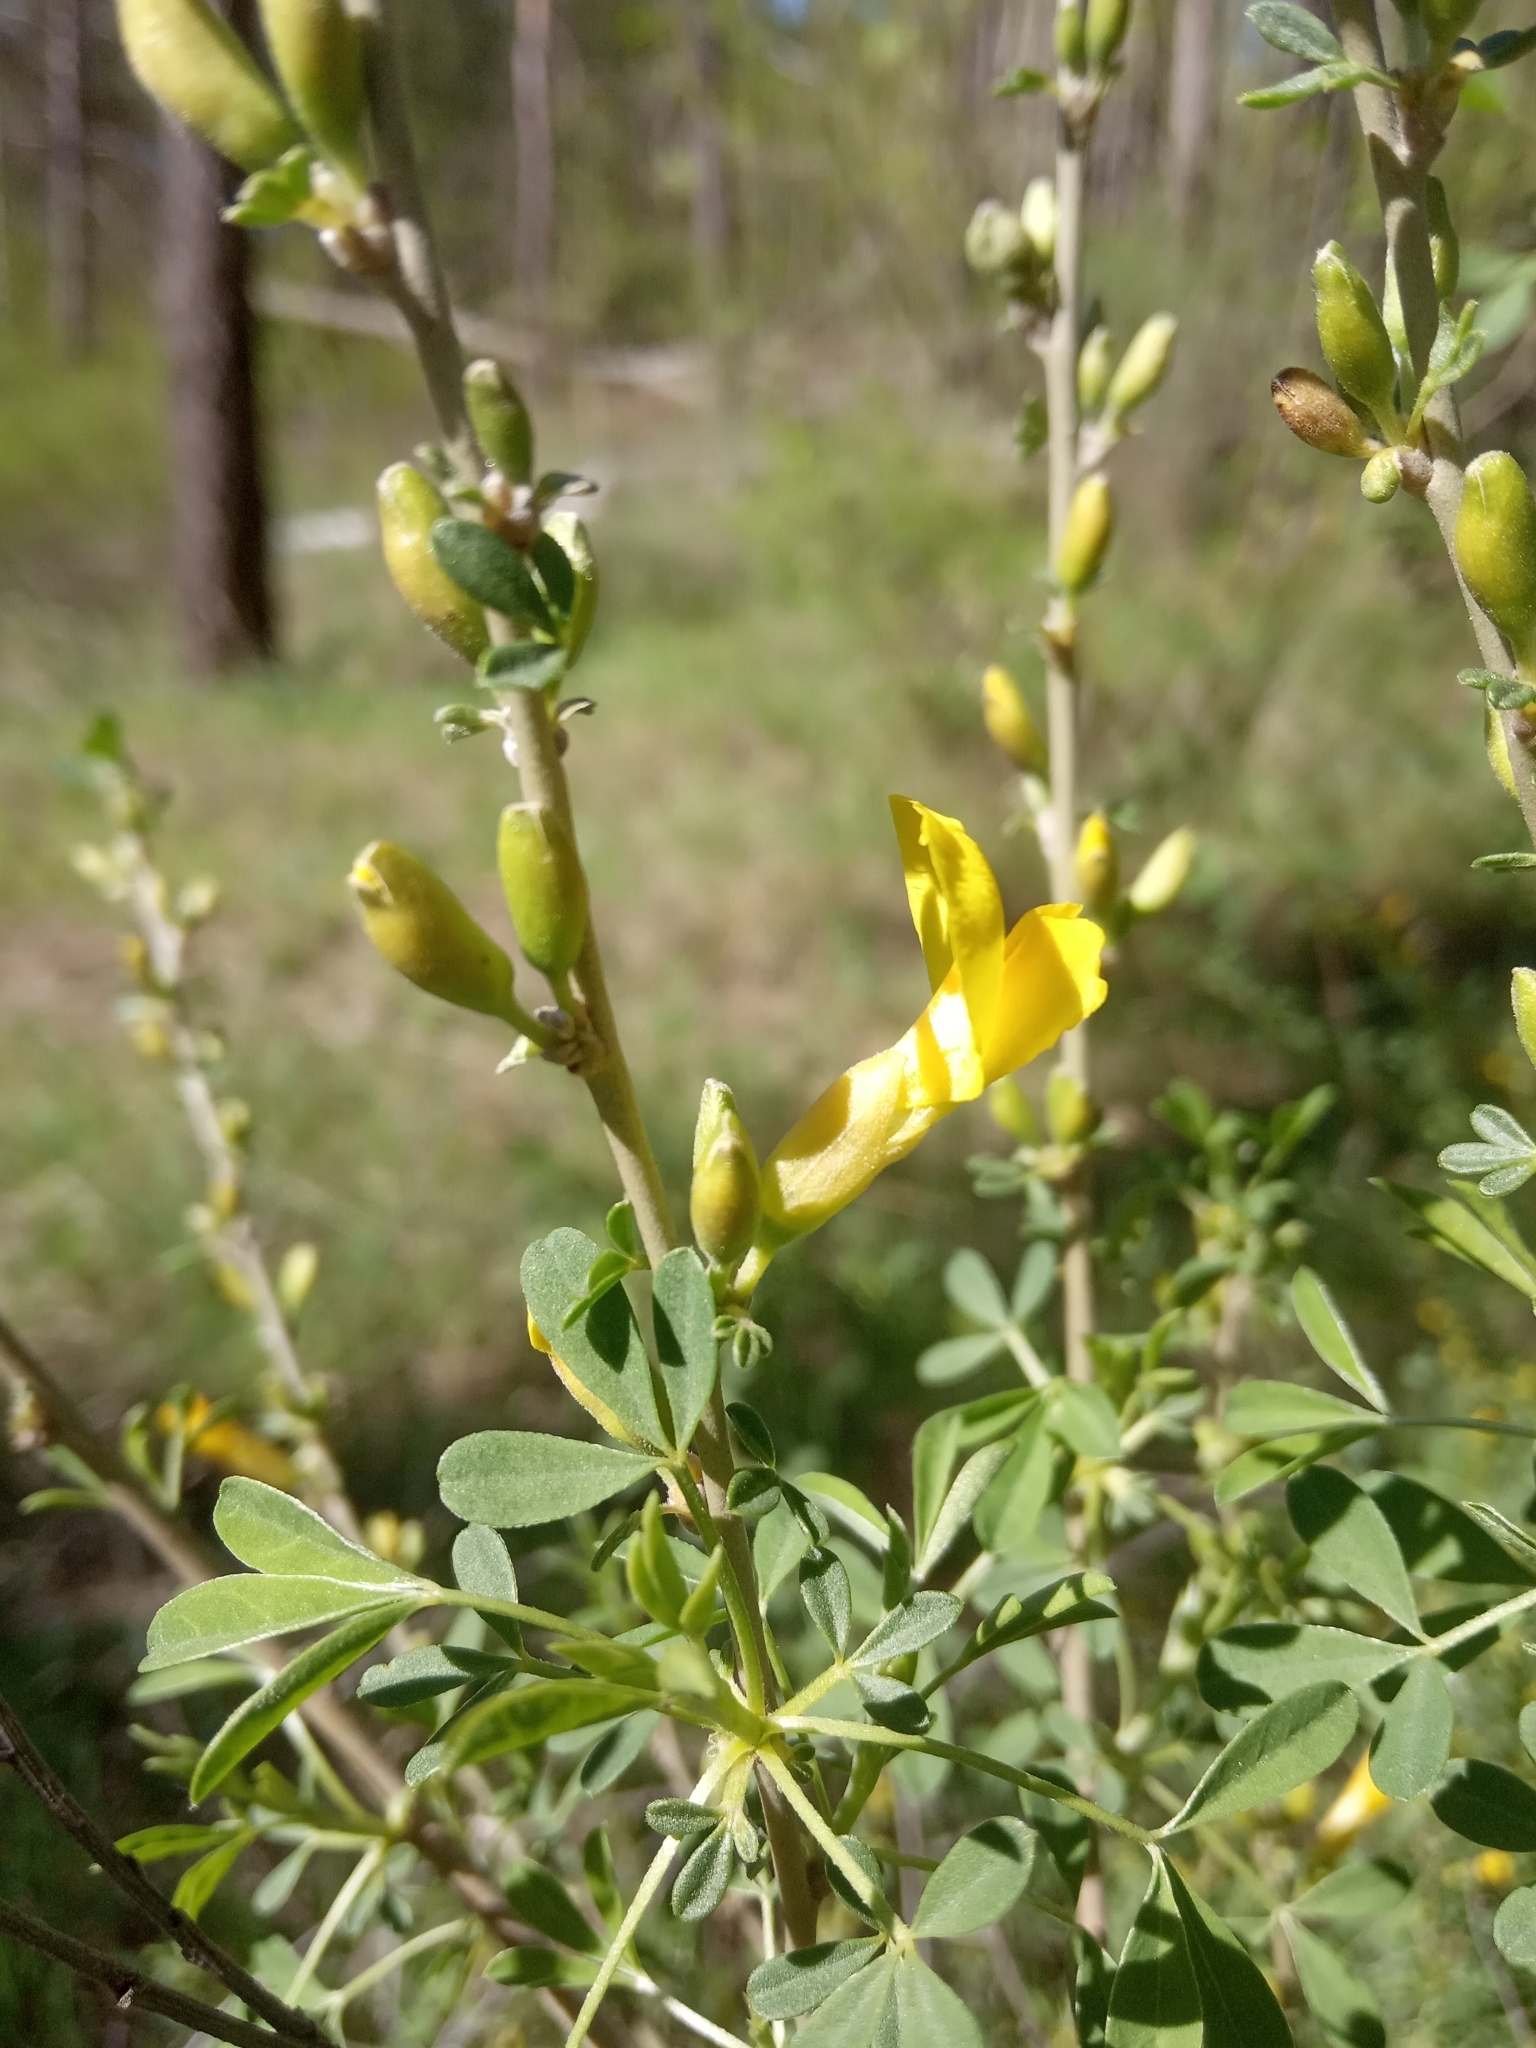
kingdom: Plantae
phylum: Tracheophyta
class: Magnoliopsida
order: Fabales
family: Fabaceae
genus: Chamaecytisus
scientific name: Chamaecytisus ruthenicus
